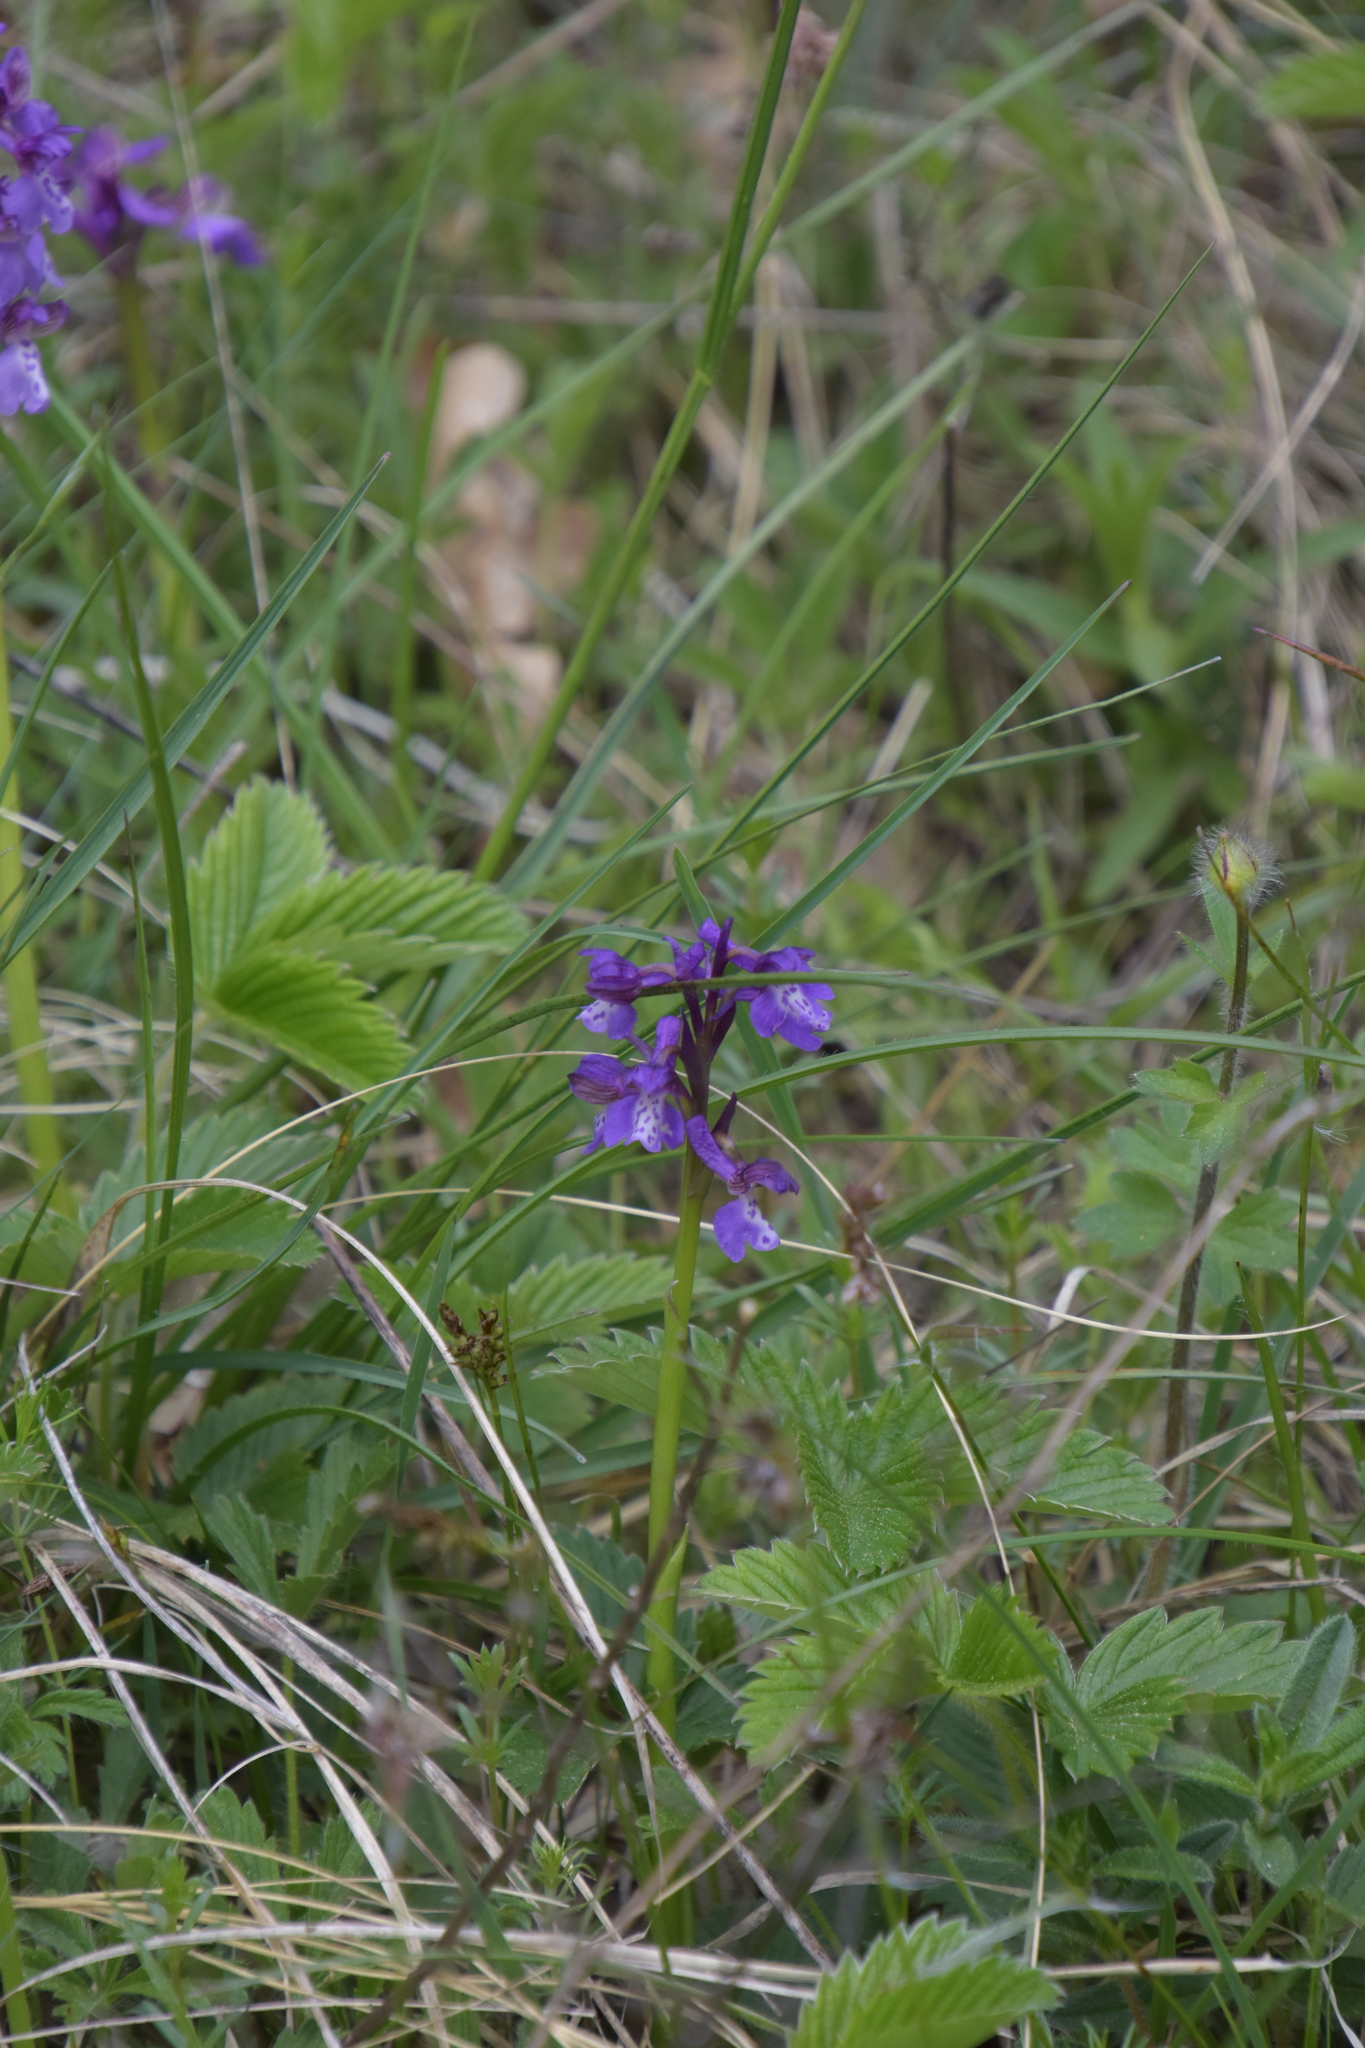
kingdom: Plantae
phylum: Tracheophyta
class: Liliopsida
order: Asparagales
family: Orchidaceae
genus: Anacamptis
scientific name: Anacamptis morio
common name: Green-winged orchid
